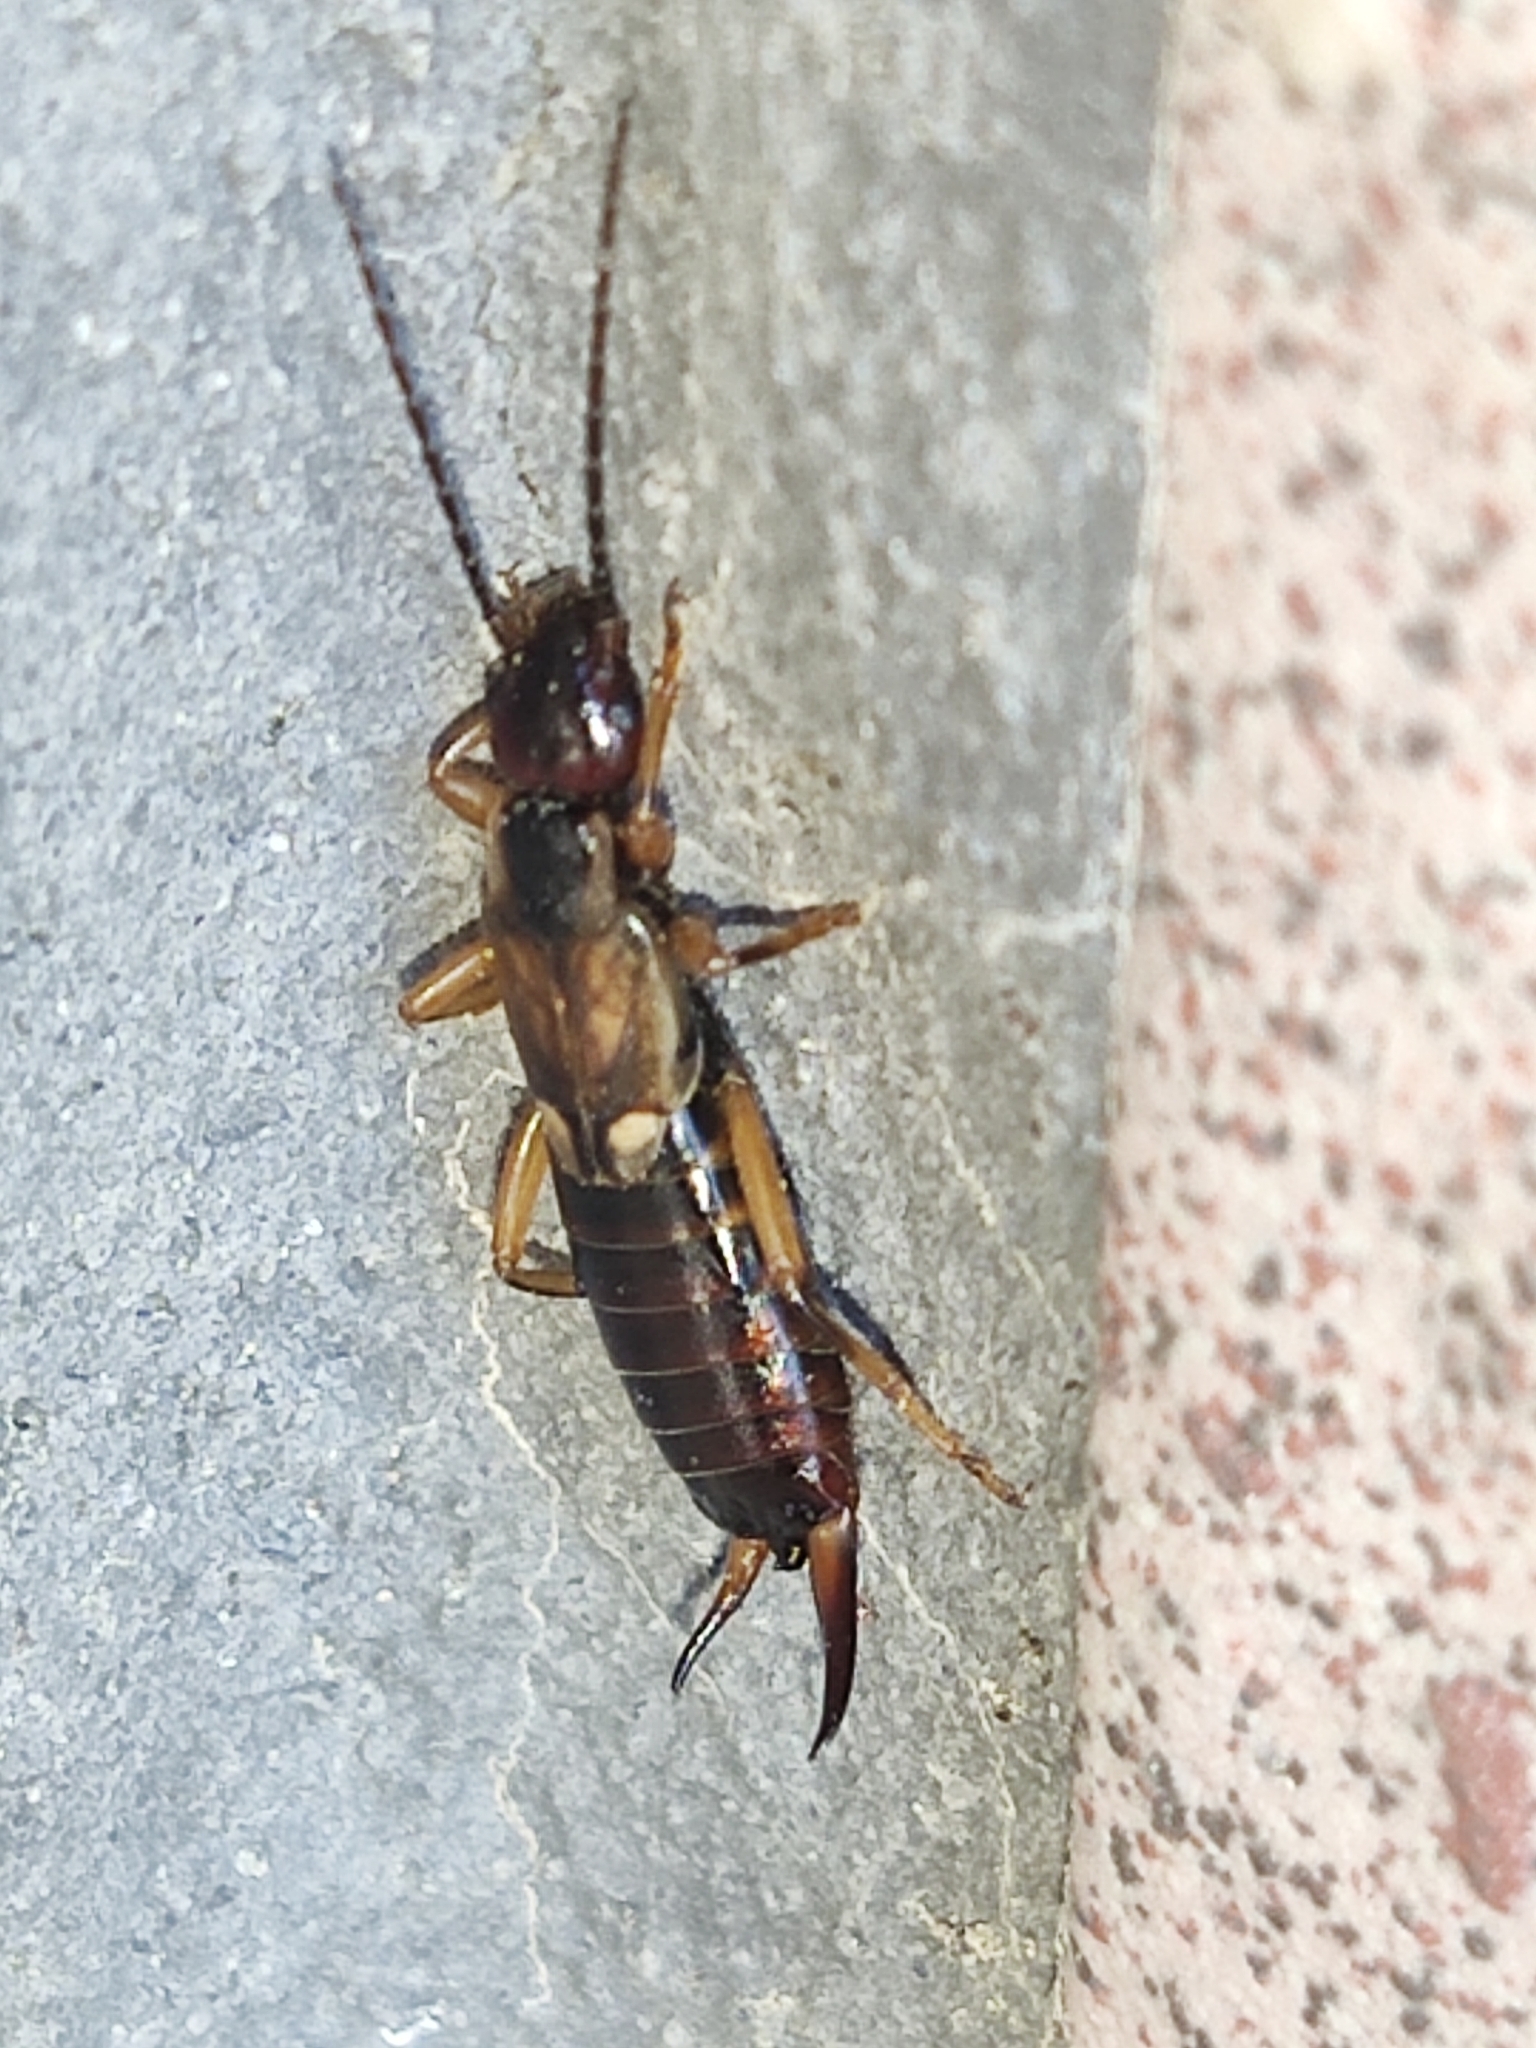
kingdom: Animalia
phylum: Arthropoda
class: Insecta
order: Dermaptera
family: Forficulidae
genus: Forficula
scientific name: Forficula
